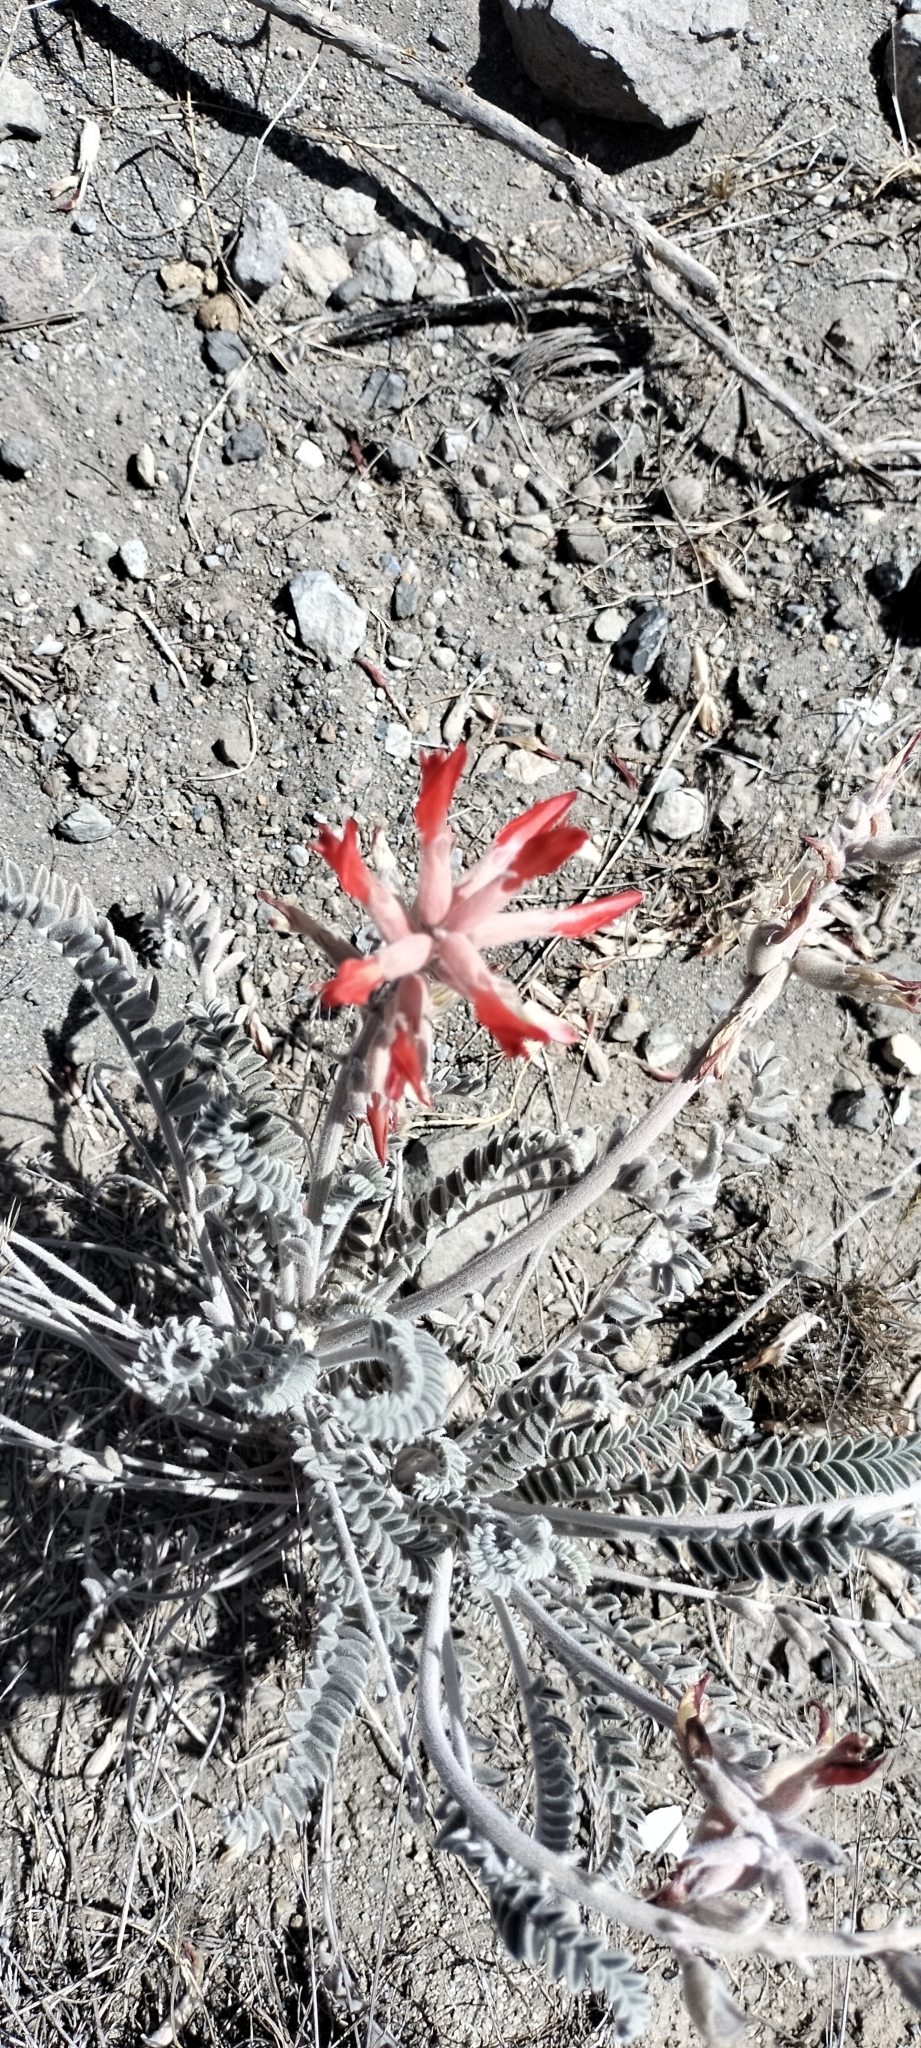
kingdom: Plantae
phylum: Tracheophyta
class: Magnoliopsida
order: Fabales
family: Fabaceae
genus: Astragalus
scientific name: Astragalus helleri
